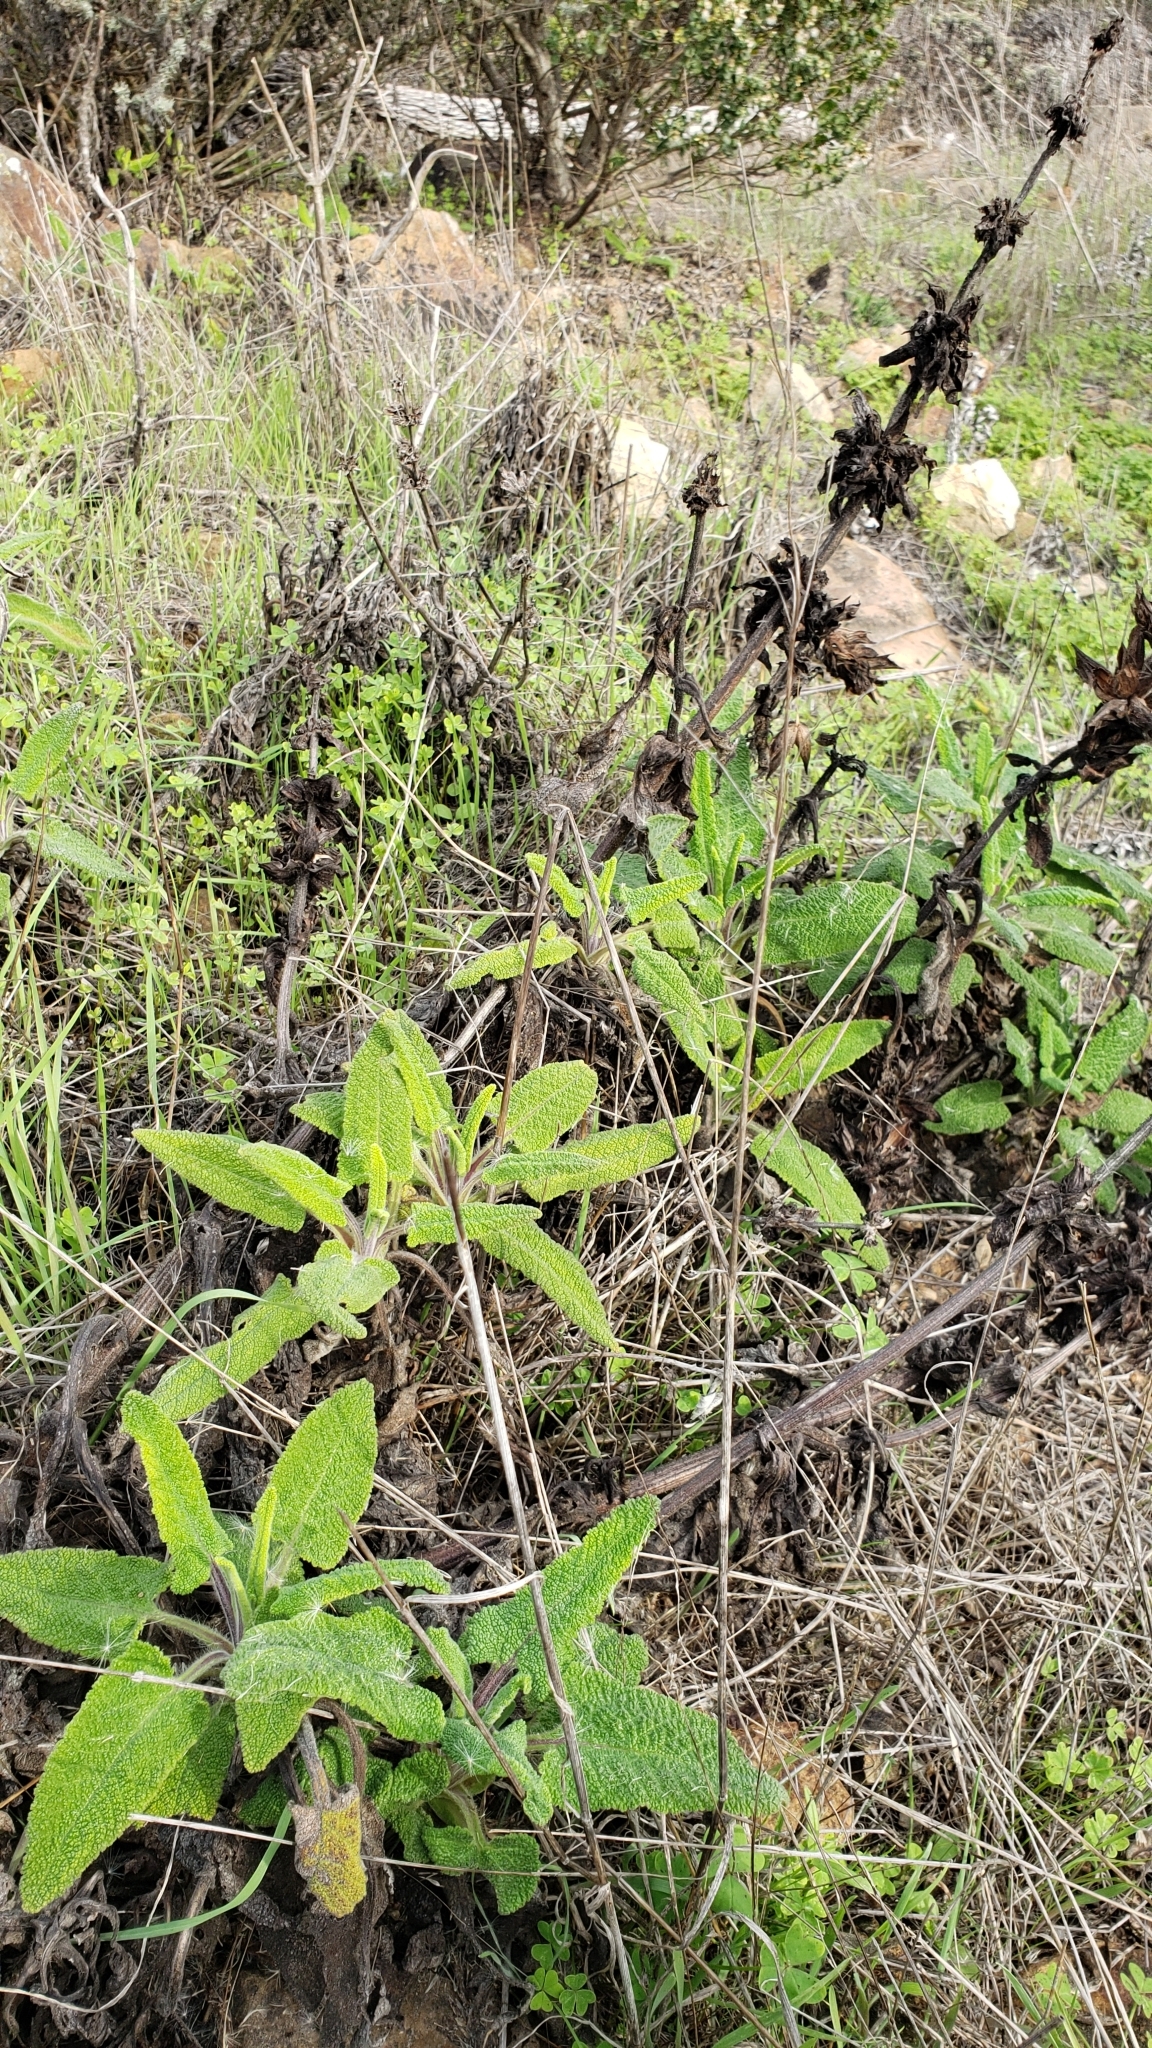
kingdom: Plantae
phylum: Tracheophyta
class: Magnoliopsida
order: Lamiales
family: Lamiaceae
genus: Salvia
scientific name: Salvia spathacea
